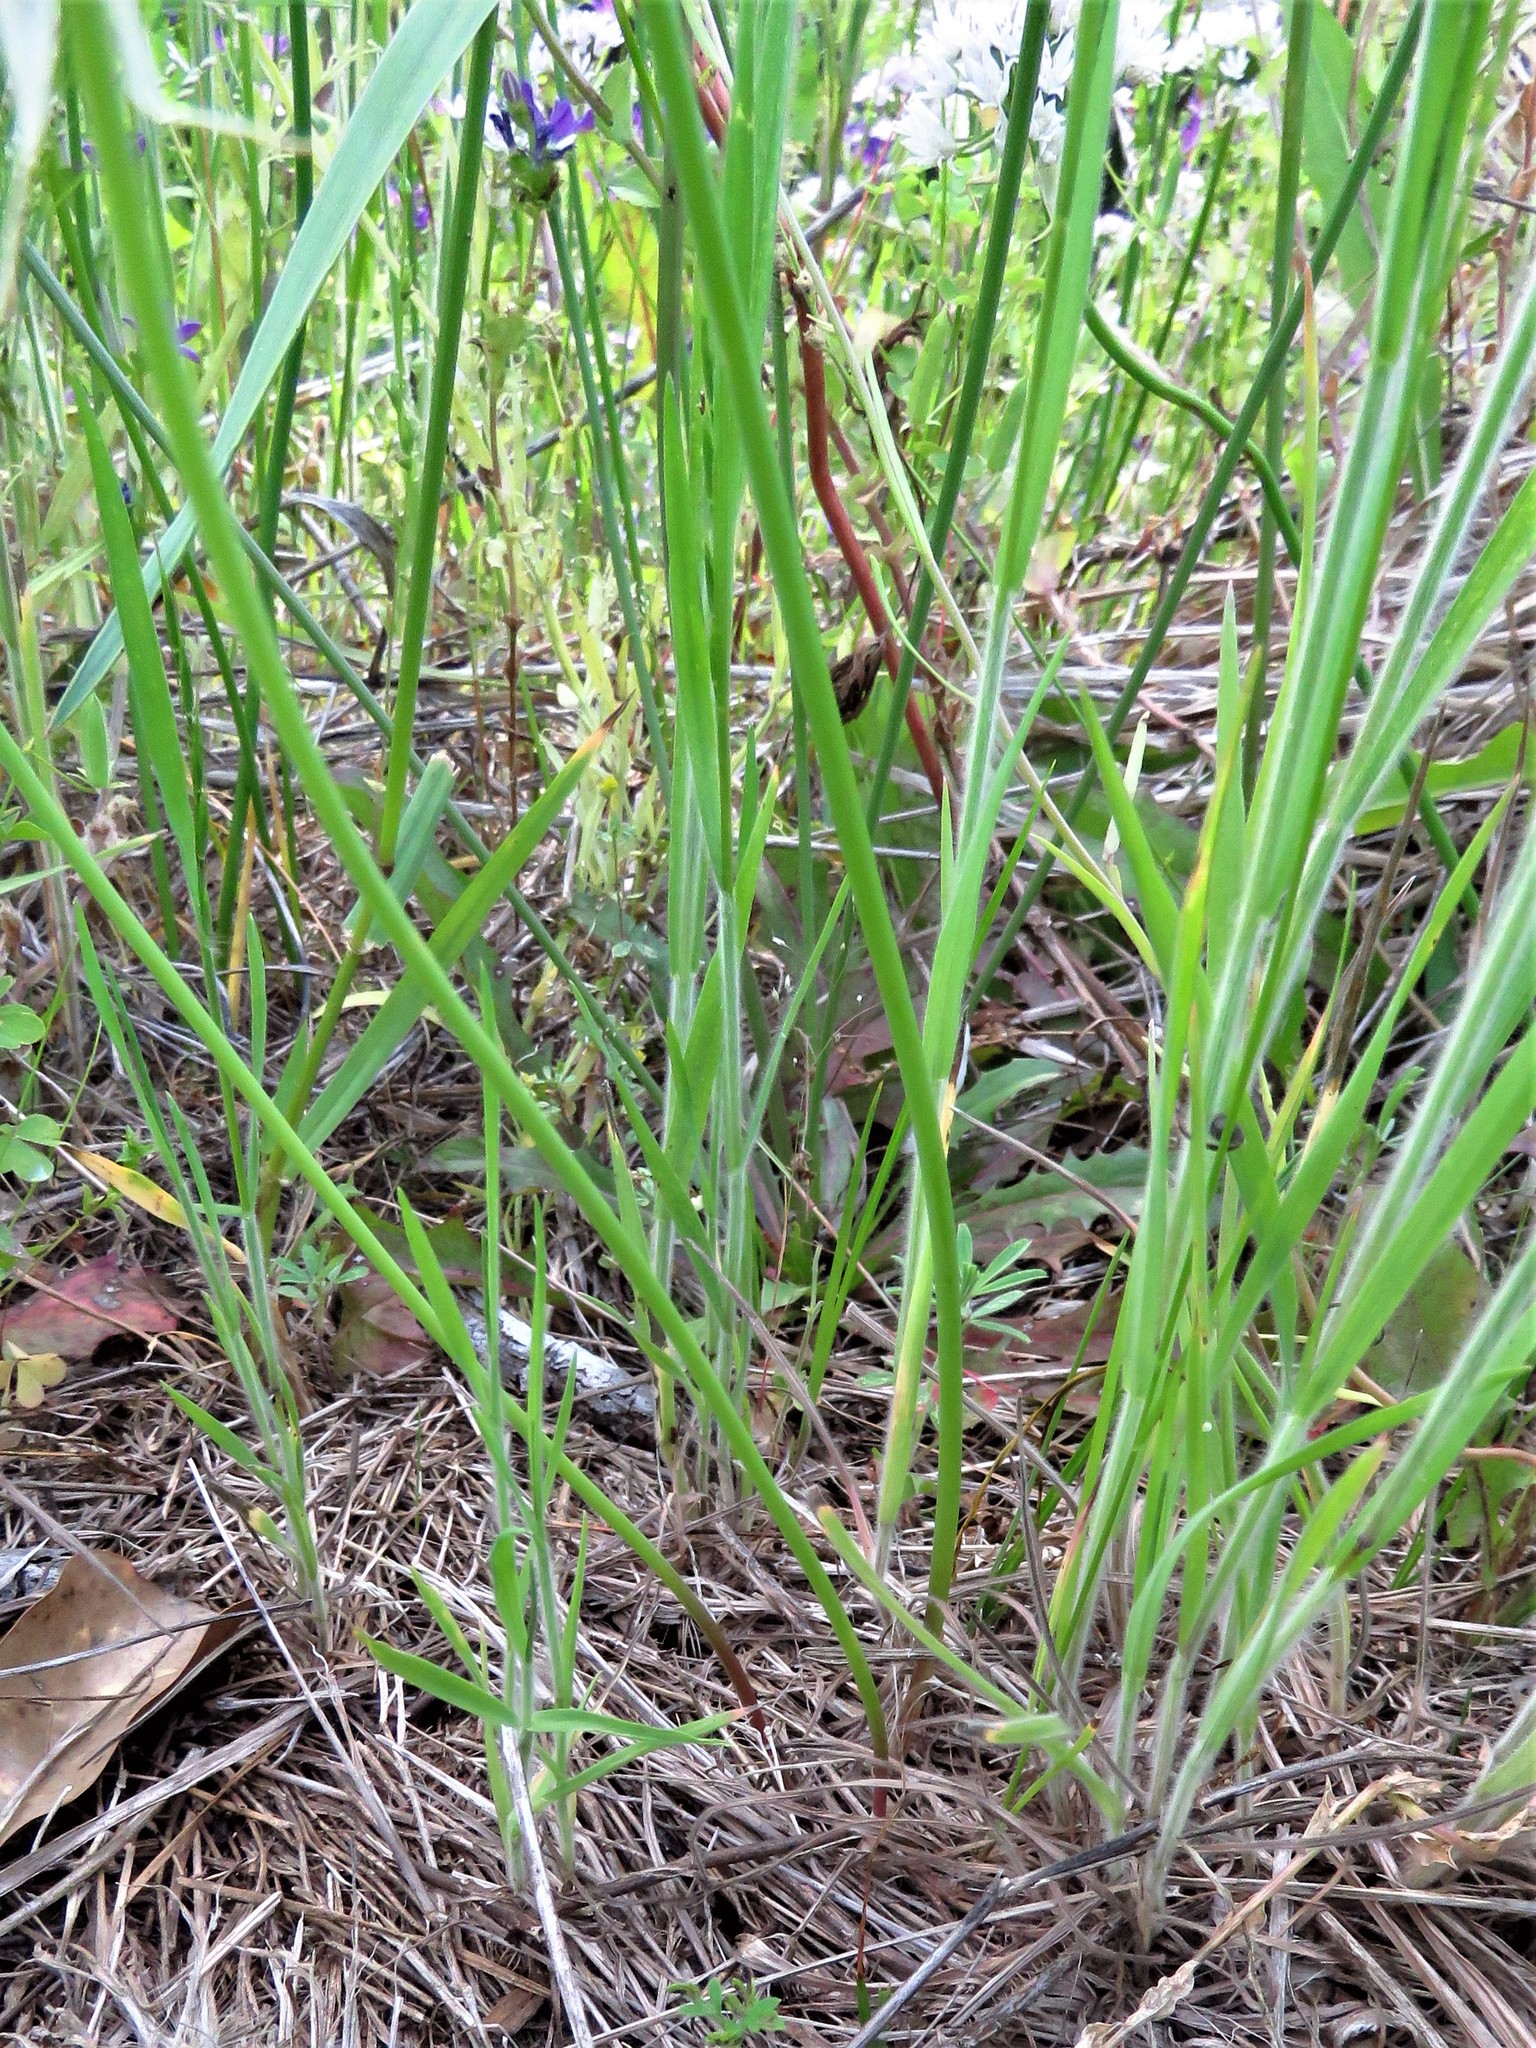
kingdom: Plantae
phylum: Tracheophyta
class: Liliopsida
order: Asparagales
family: Amaryllidaceae
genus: Allium
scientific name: Allium canadense
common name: Meadow garlic
